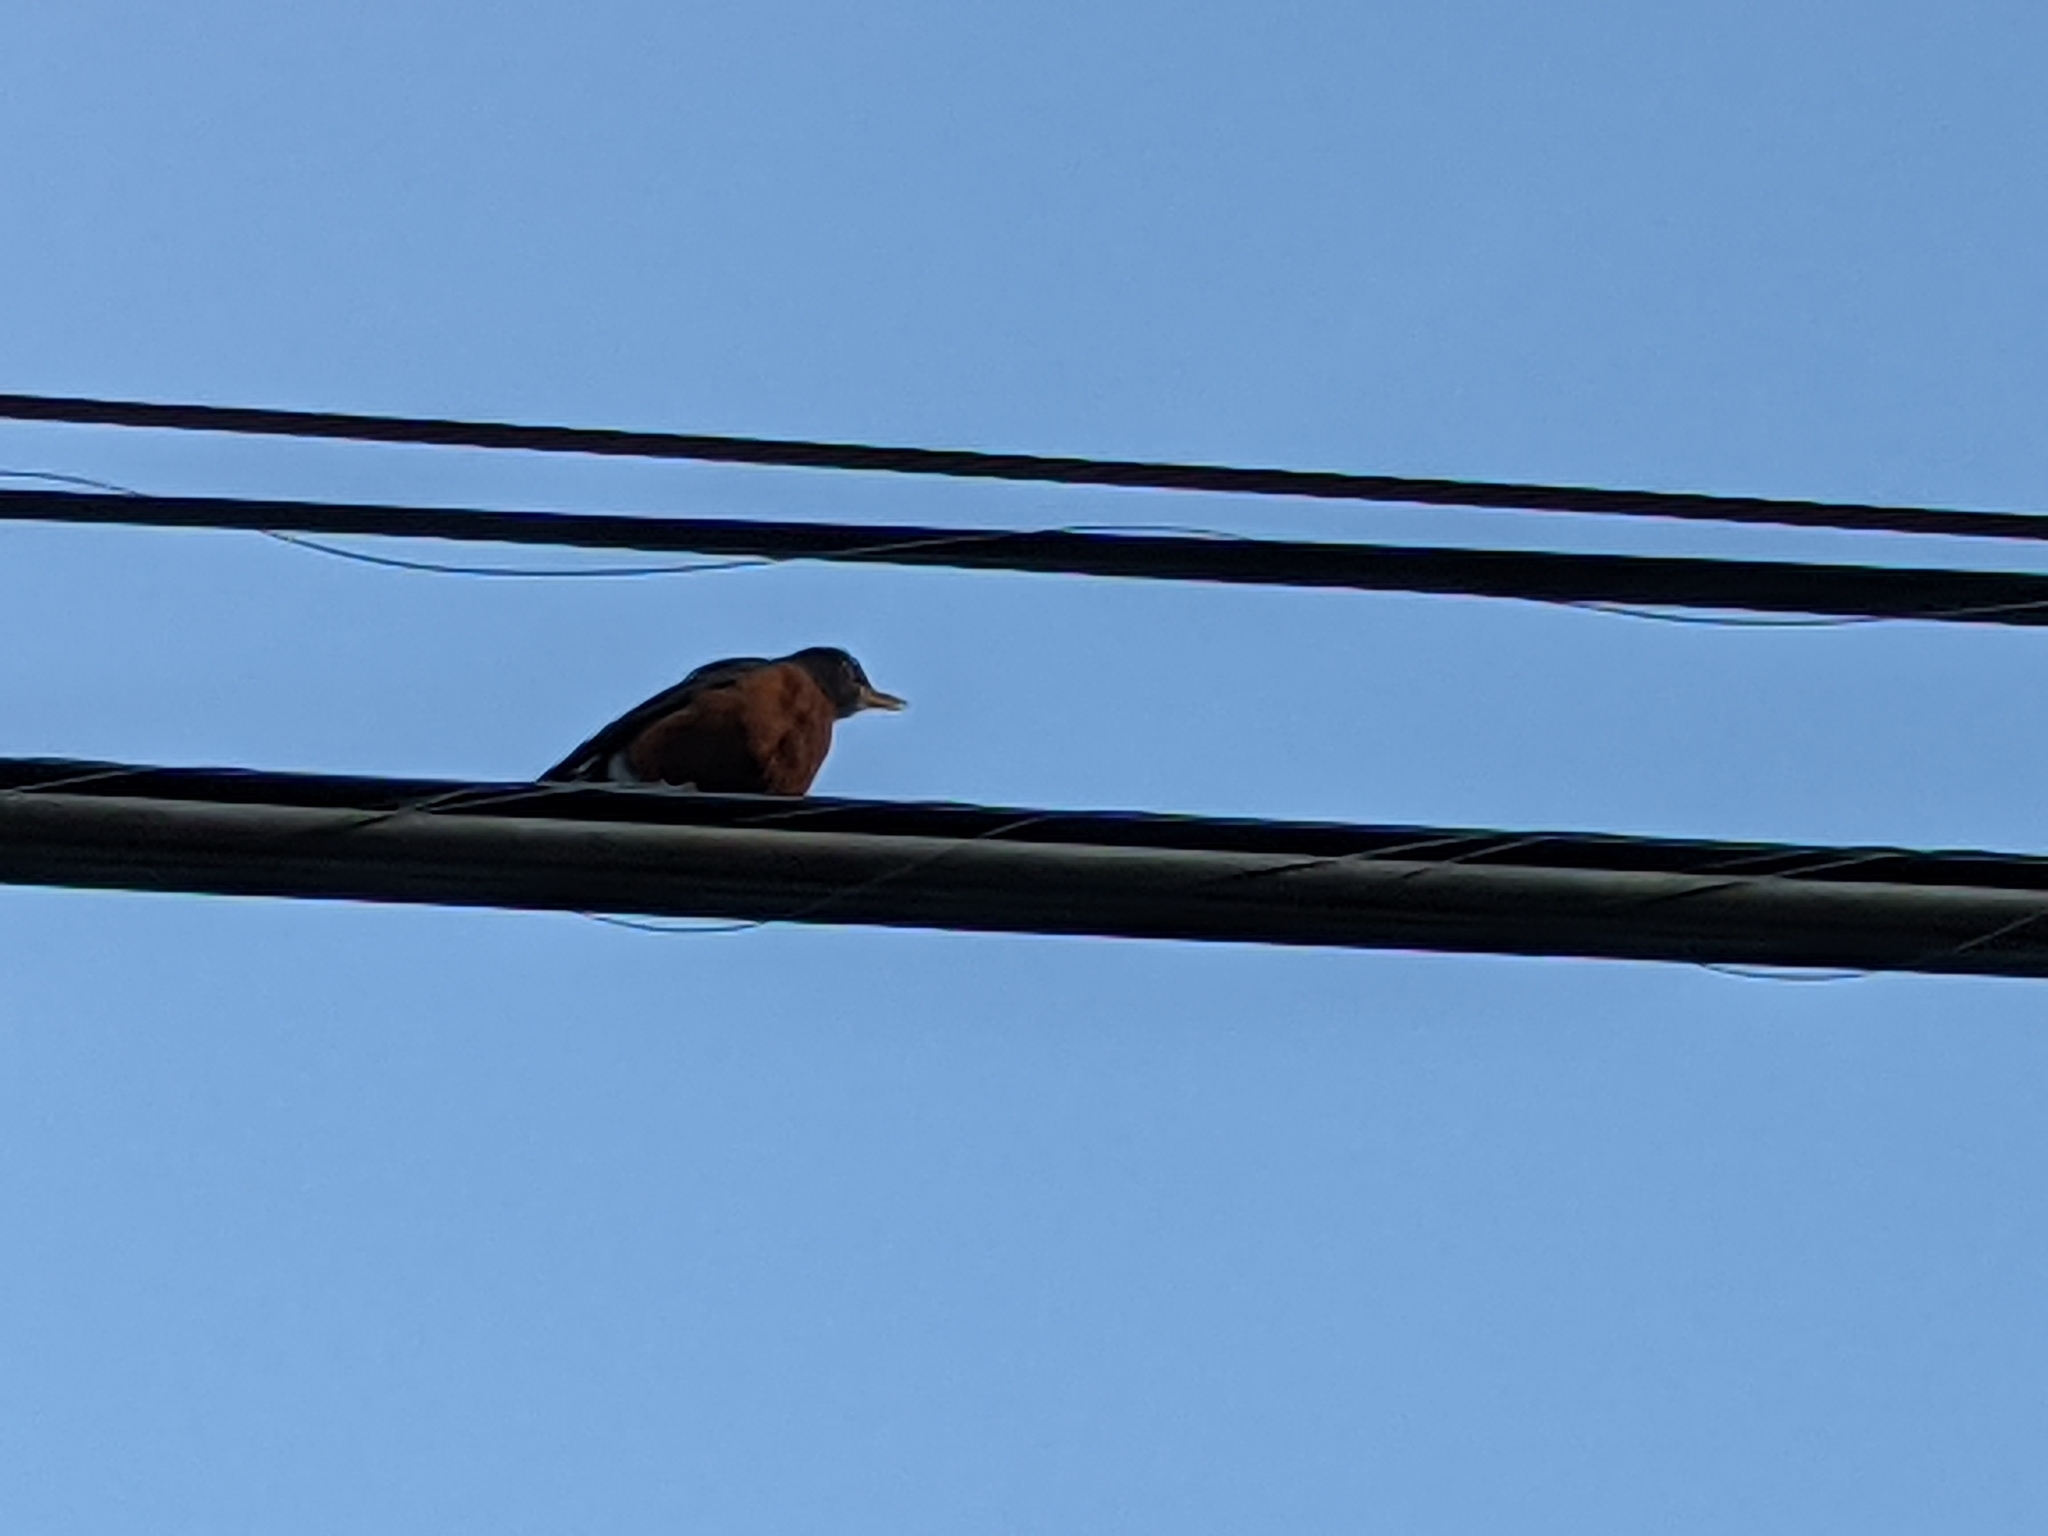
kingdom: Animalia
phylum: Chordata
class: Aves
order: Passeriformes
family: Turdidae
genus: Turdus
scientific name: Turdus migratorius
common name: American robin
